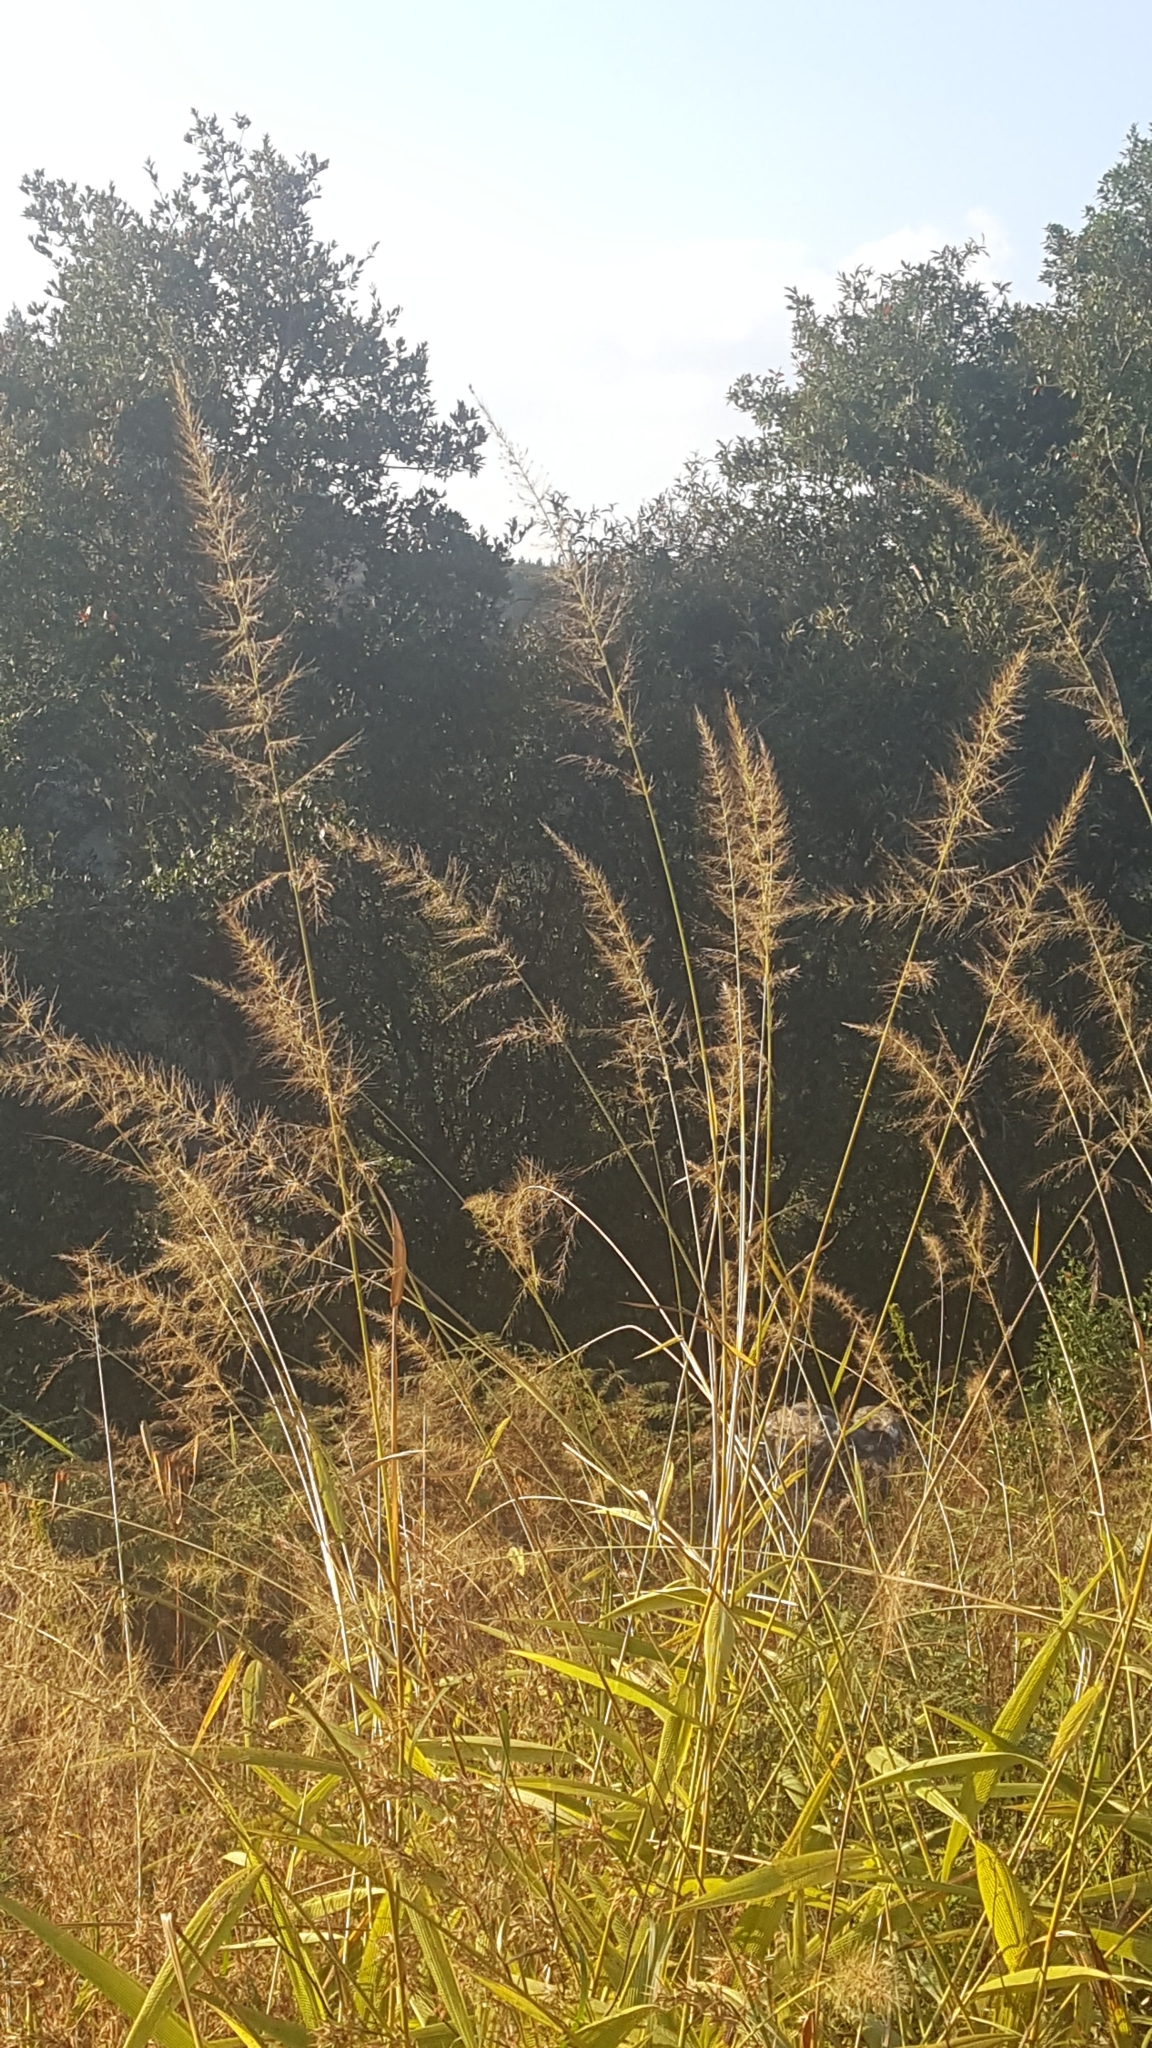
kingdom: Plantae
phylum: Tracheophyta
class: Liliopsida
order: Poales
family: Poaceae
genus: Setaria
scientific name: Setaria megaphylla
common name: Bigleaf bristlegrass
